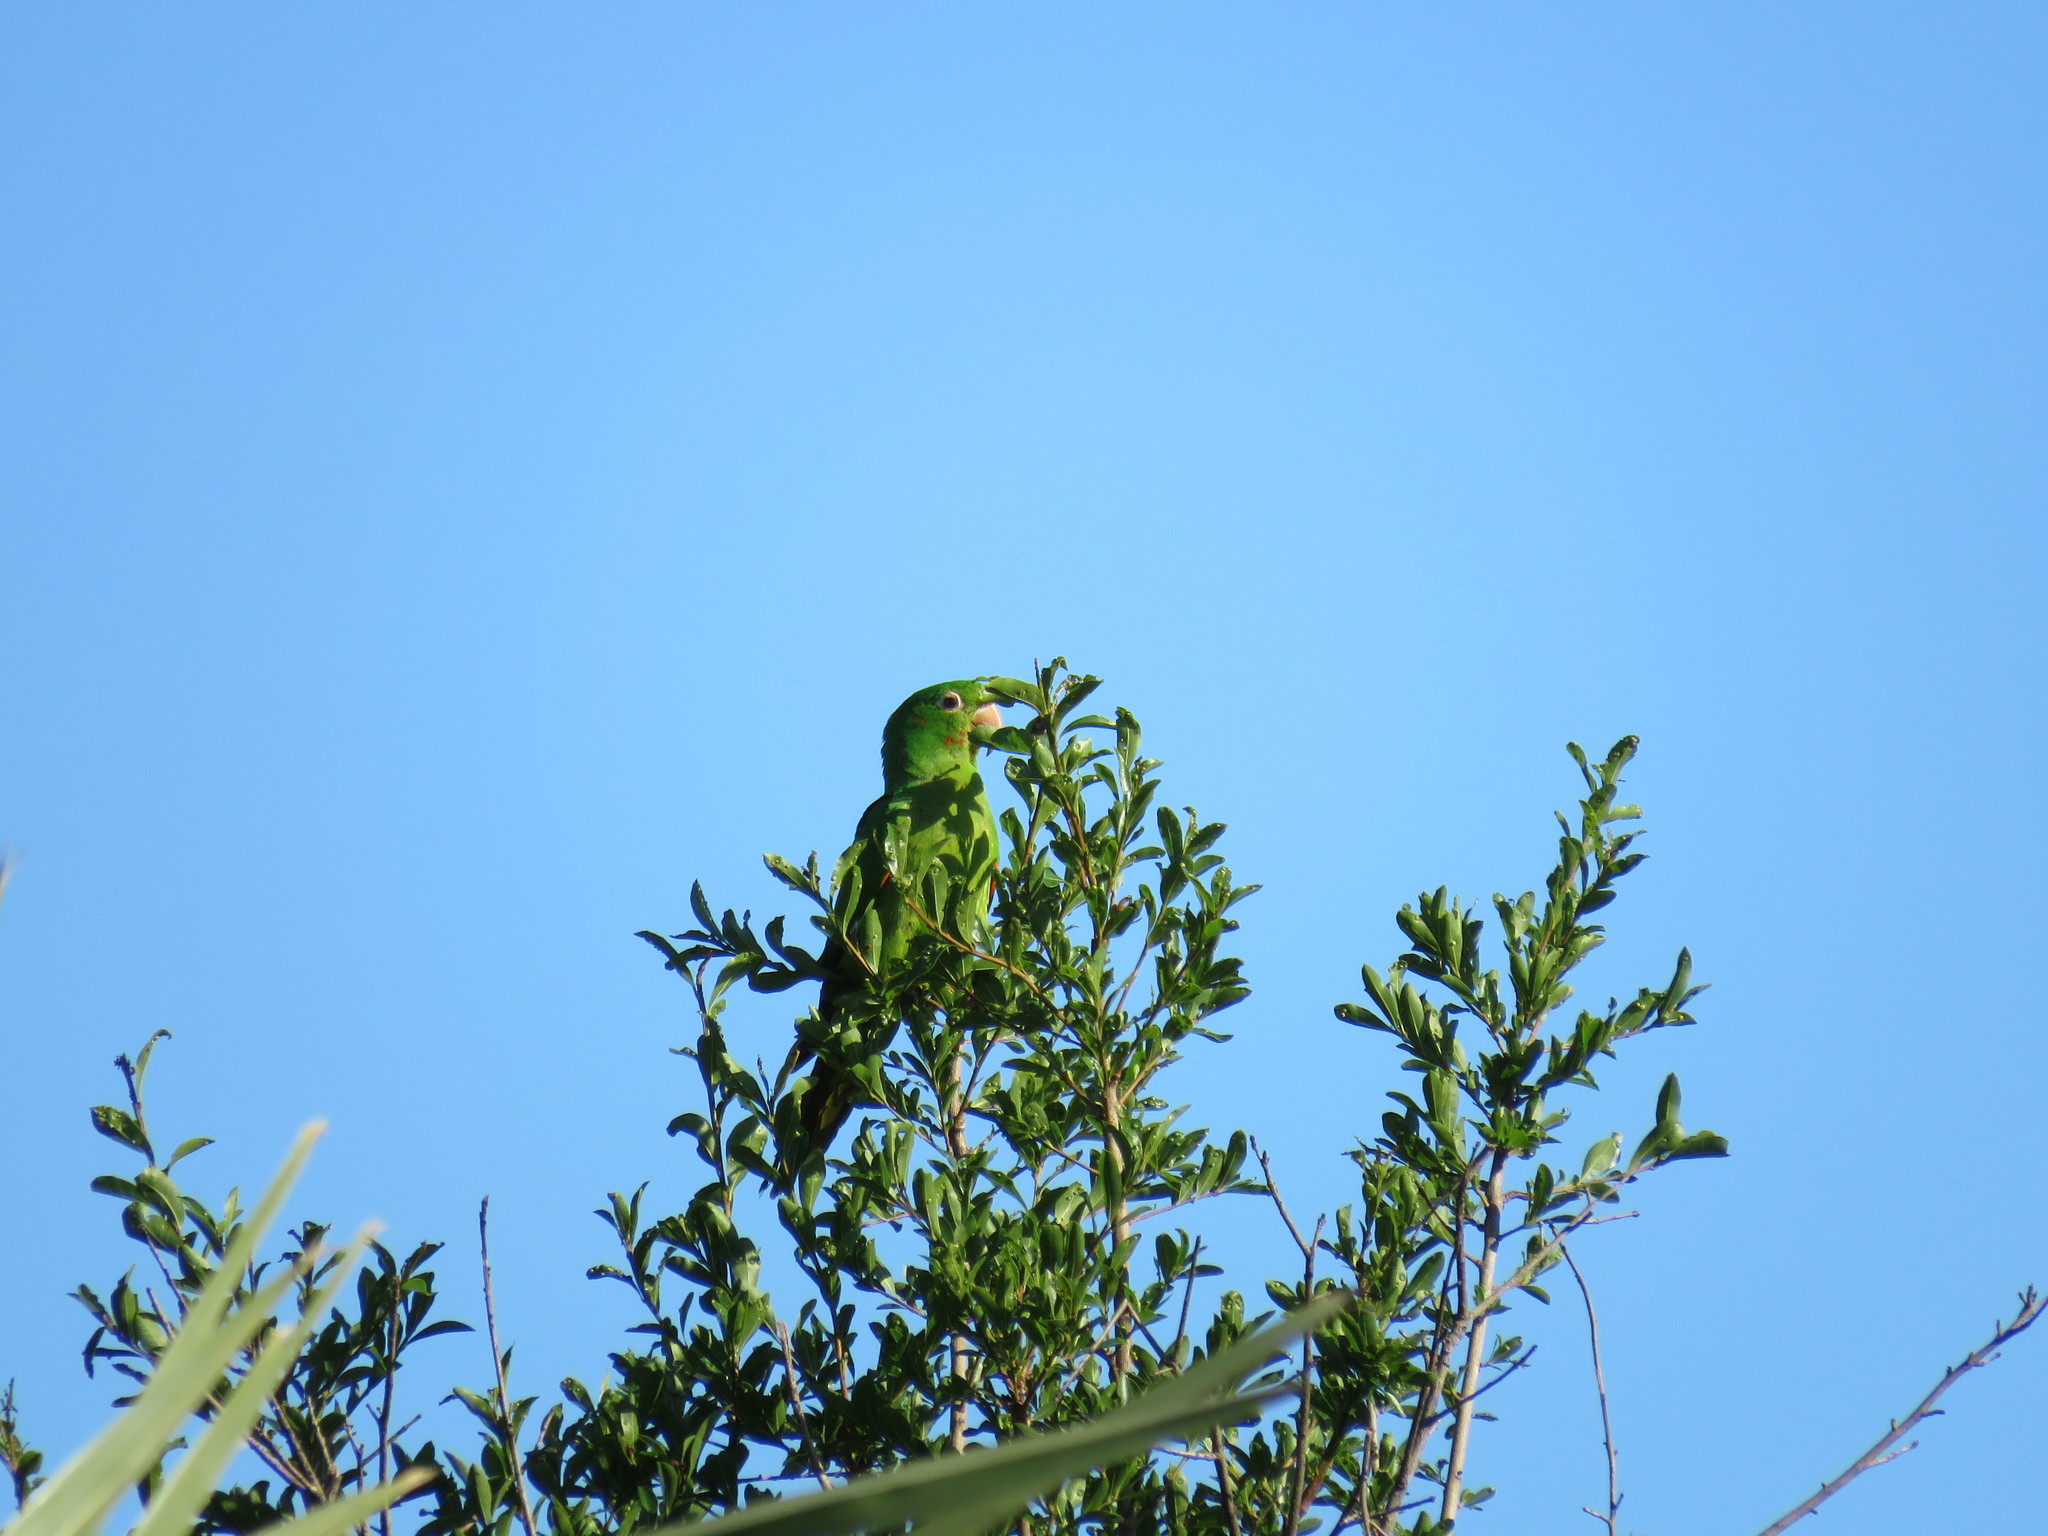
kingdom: Animalia
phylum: Chordata
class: Aves
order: Psittaciformes
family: Psittacidae
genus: Aratinga
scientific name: Aratinga leucophthalma
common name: White-eyed parakeet
